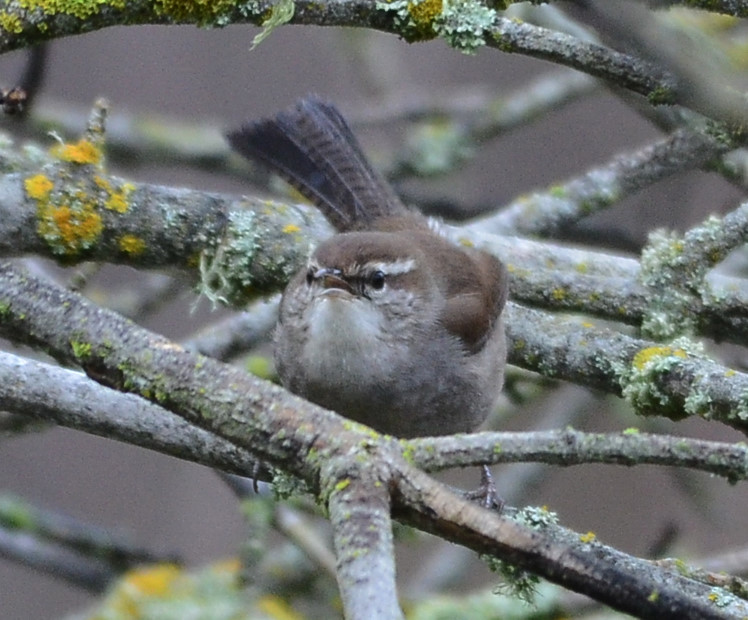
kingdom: Animalia
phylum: Chordata
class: Aves
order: Passeriformes
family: Troglodytidae
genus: Thryomanes
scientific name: Thryomanes bewickii
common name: Bewick's wren
